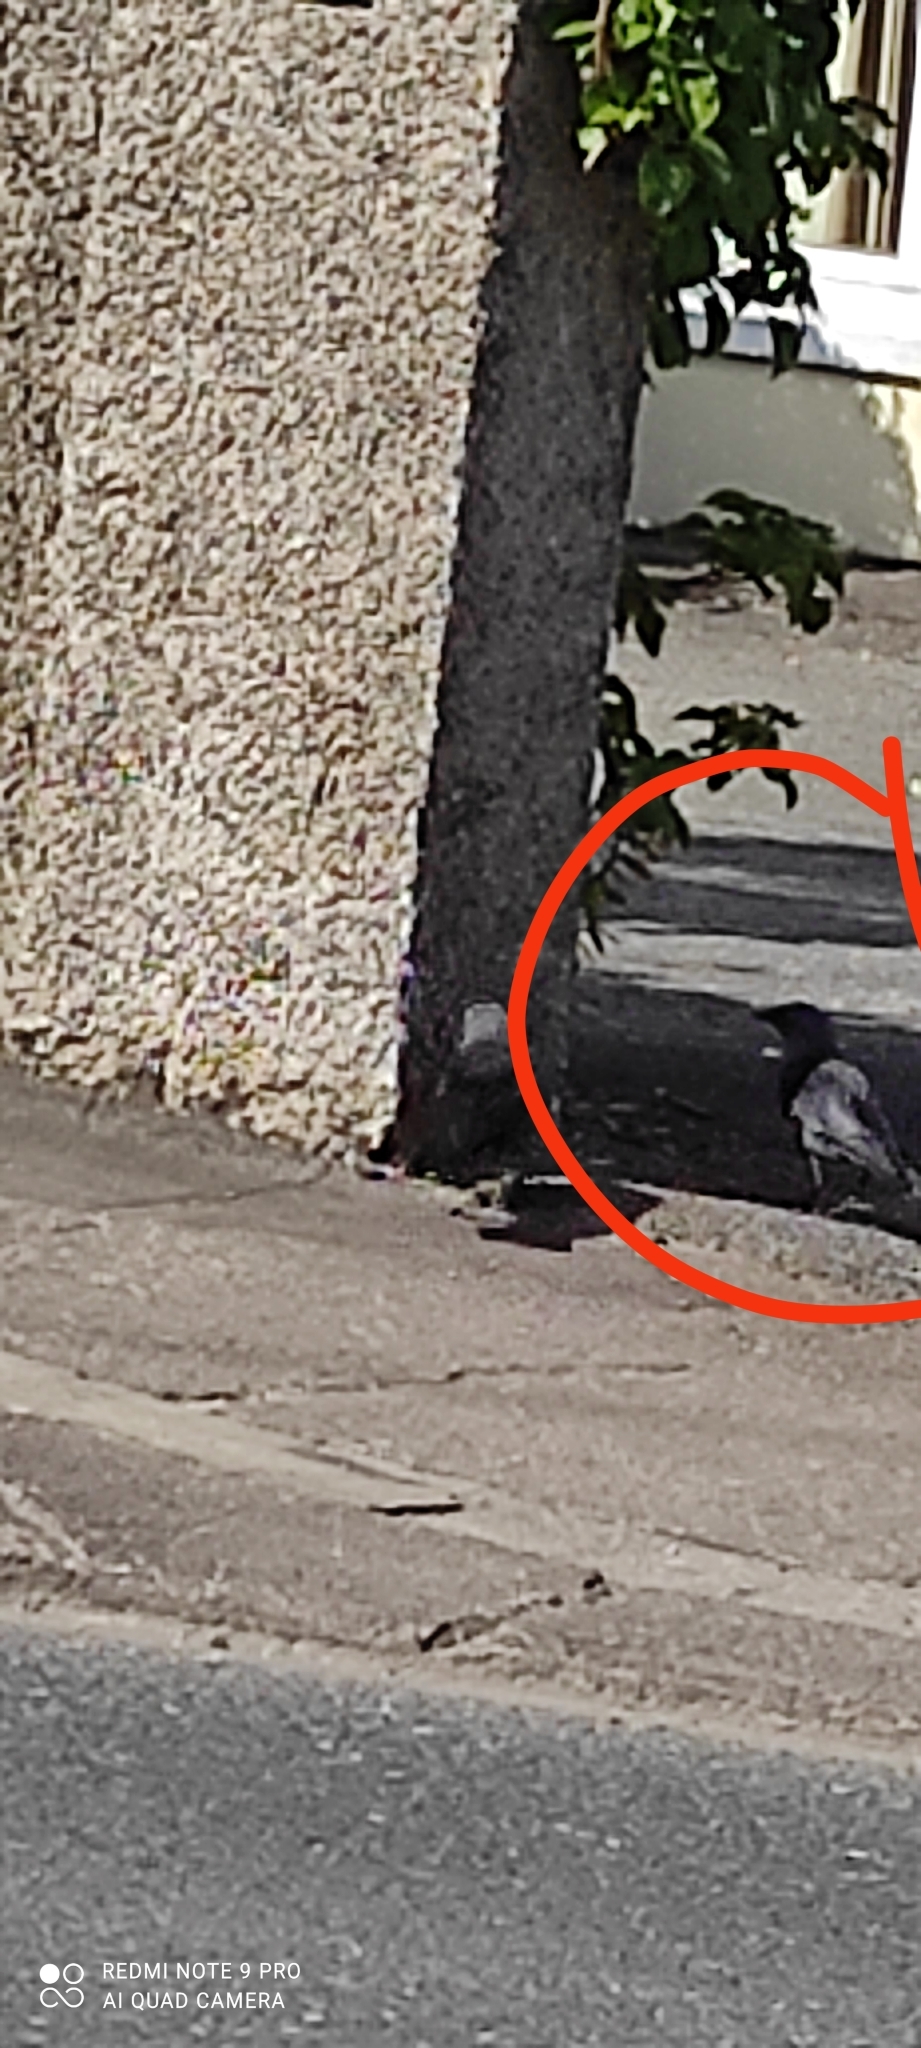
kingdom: Animalia
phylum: Chordata
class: Aves
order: Passeriformes
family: Corvidae
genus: Coloeus
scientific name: Coloeus monedula
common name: Western jackdaw
